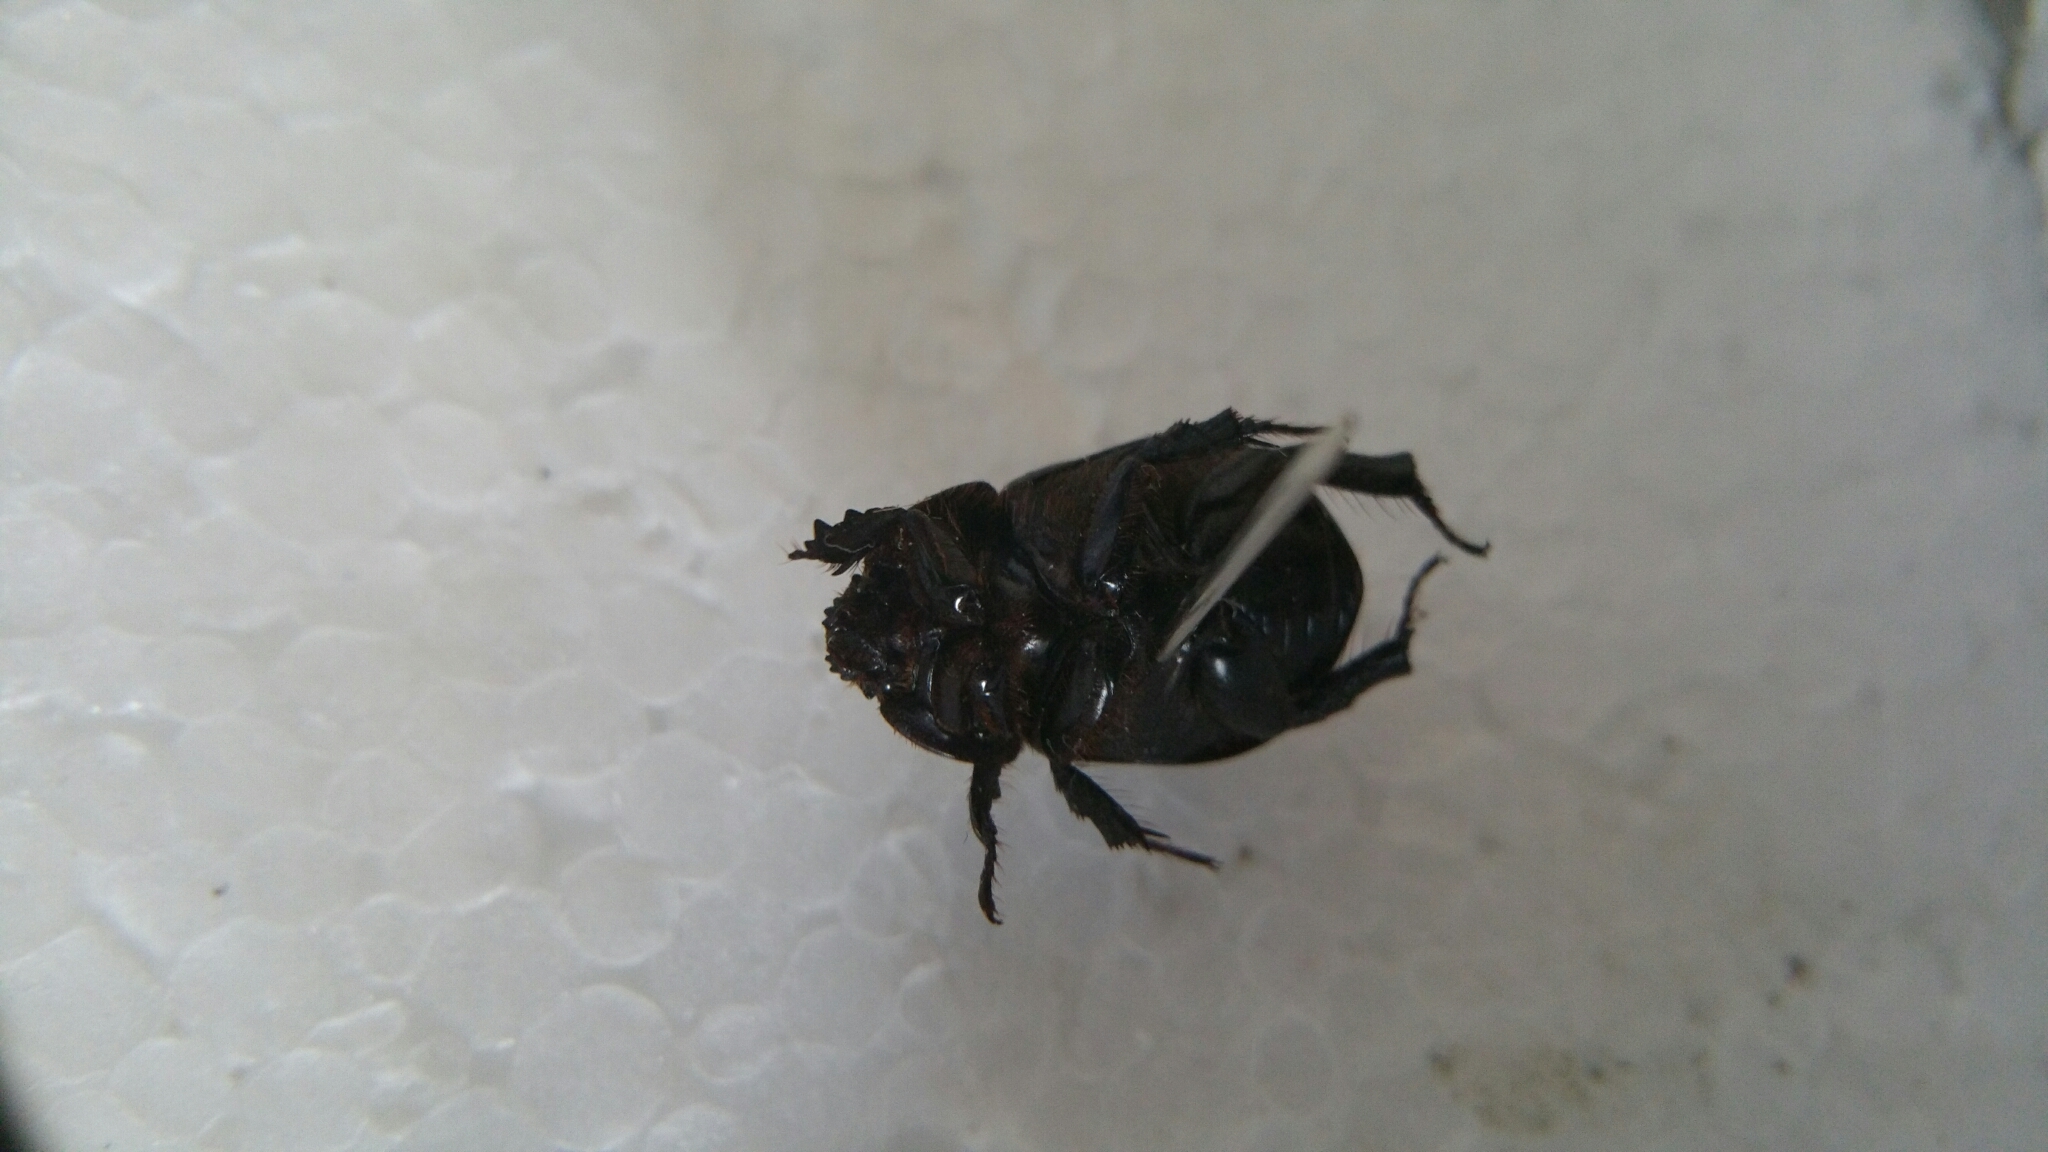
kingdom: Animalia
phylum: Arthropoda
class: Insecta
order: Coleoptera
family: Scarabaeidae
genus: Pentodon
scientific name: Pentodon idiota
